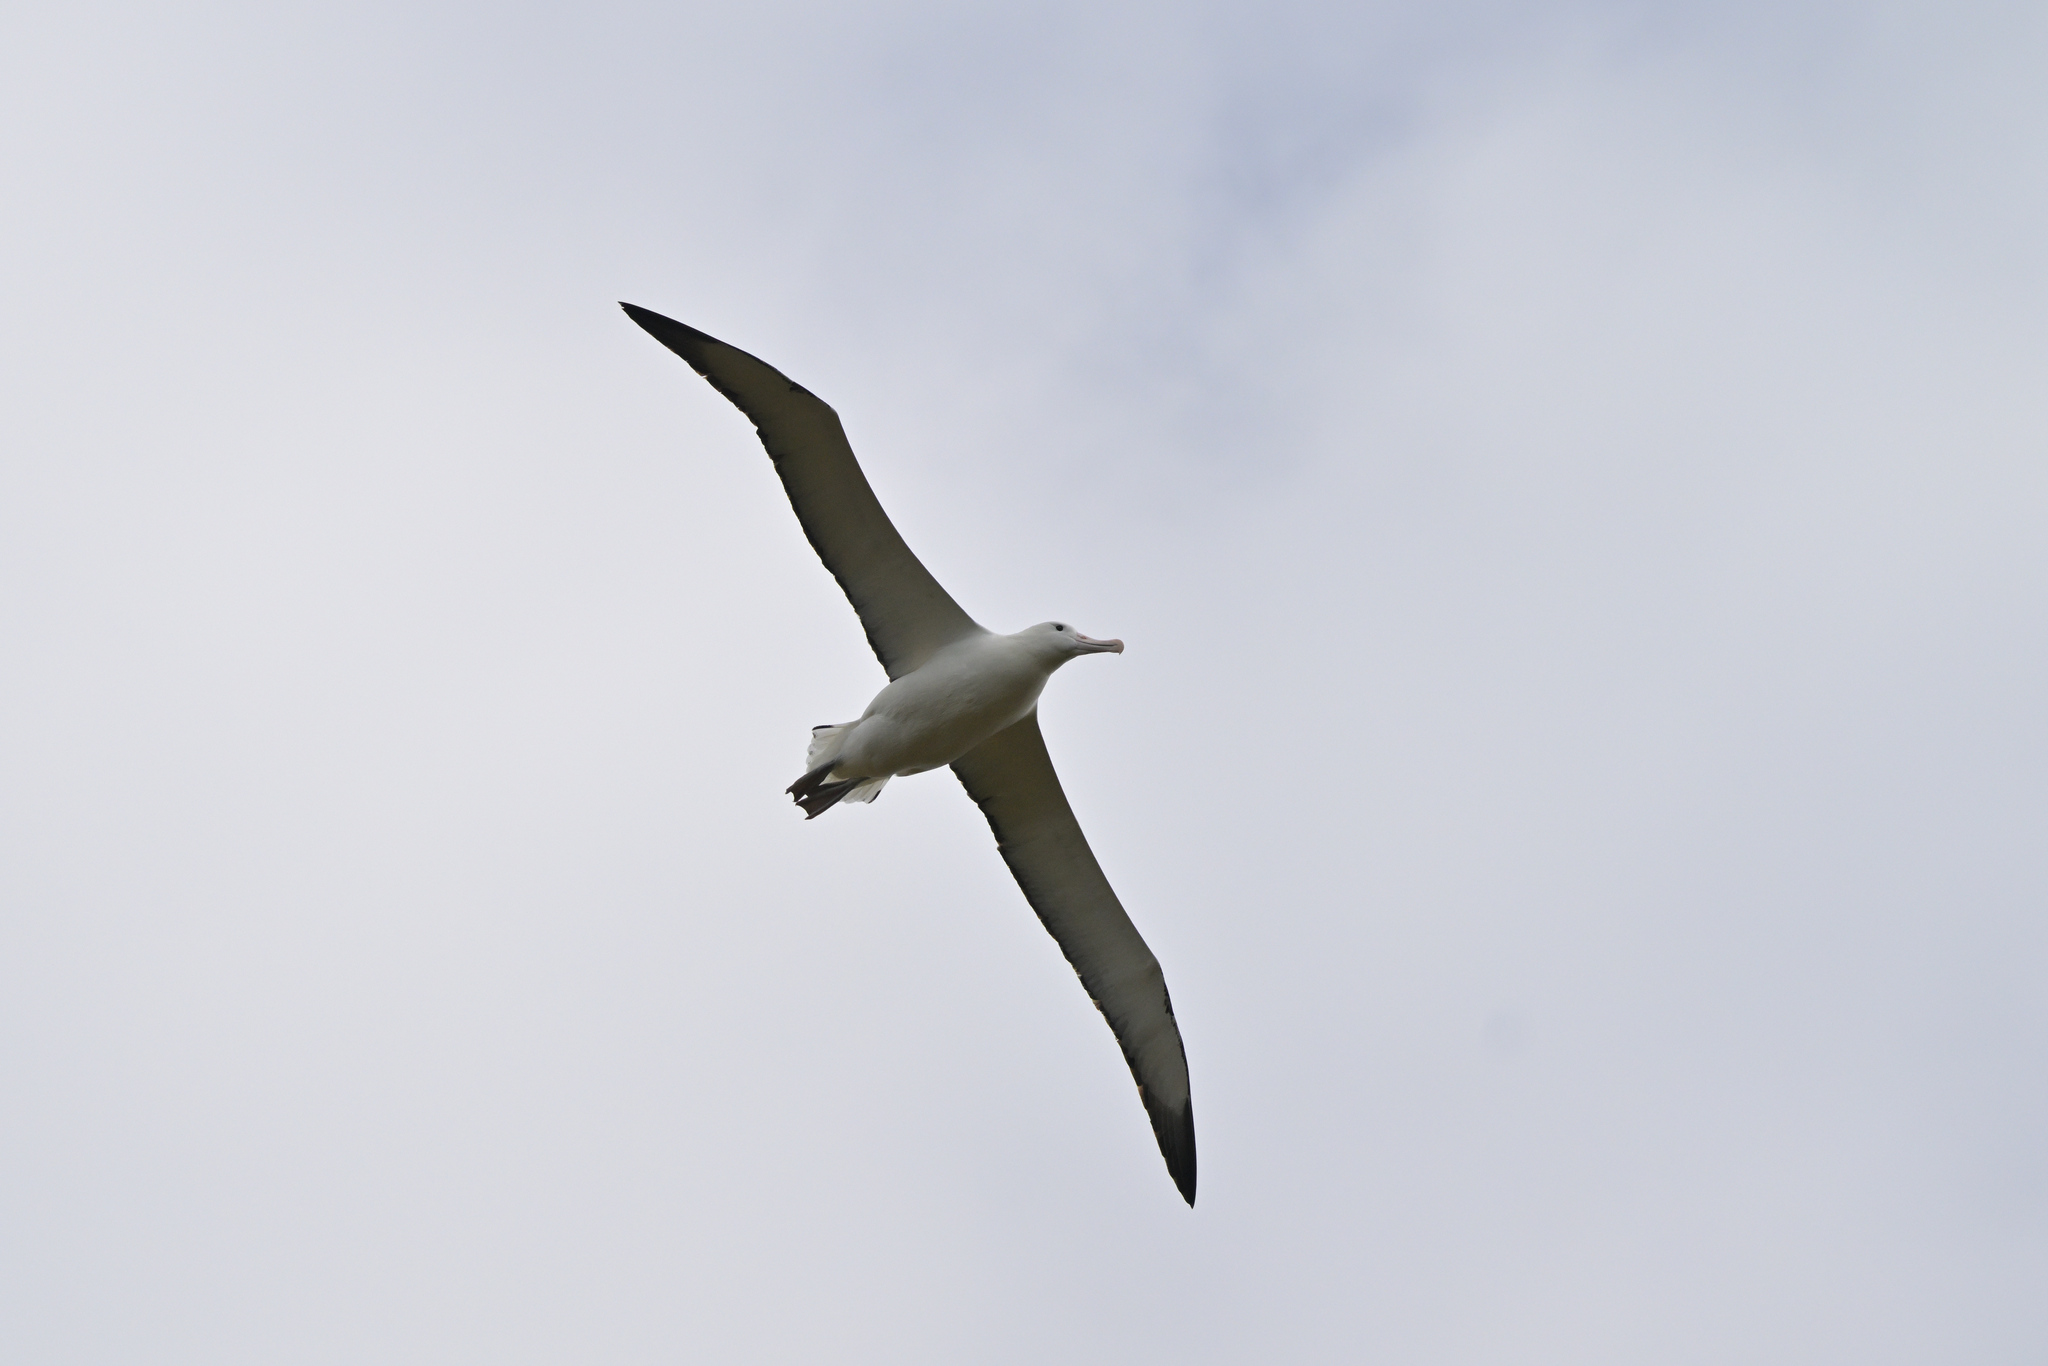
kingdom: Animalia
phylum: Chordata
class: Aves
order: Procellariiformes
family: Diomedeidae
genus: Diomedea
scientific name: Diomedea epomophora
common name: Southern royal albatross
